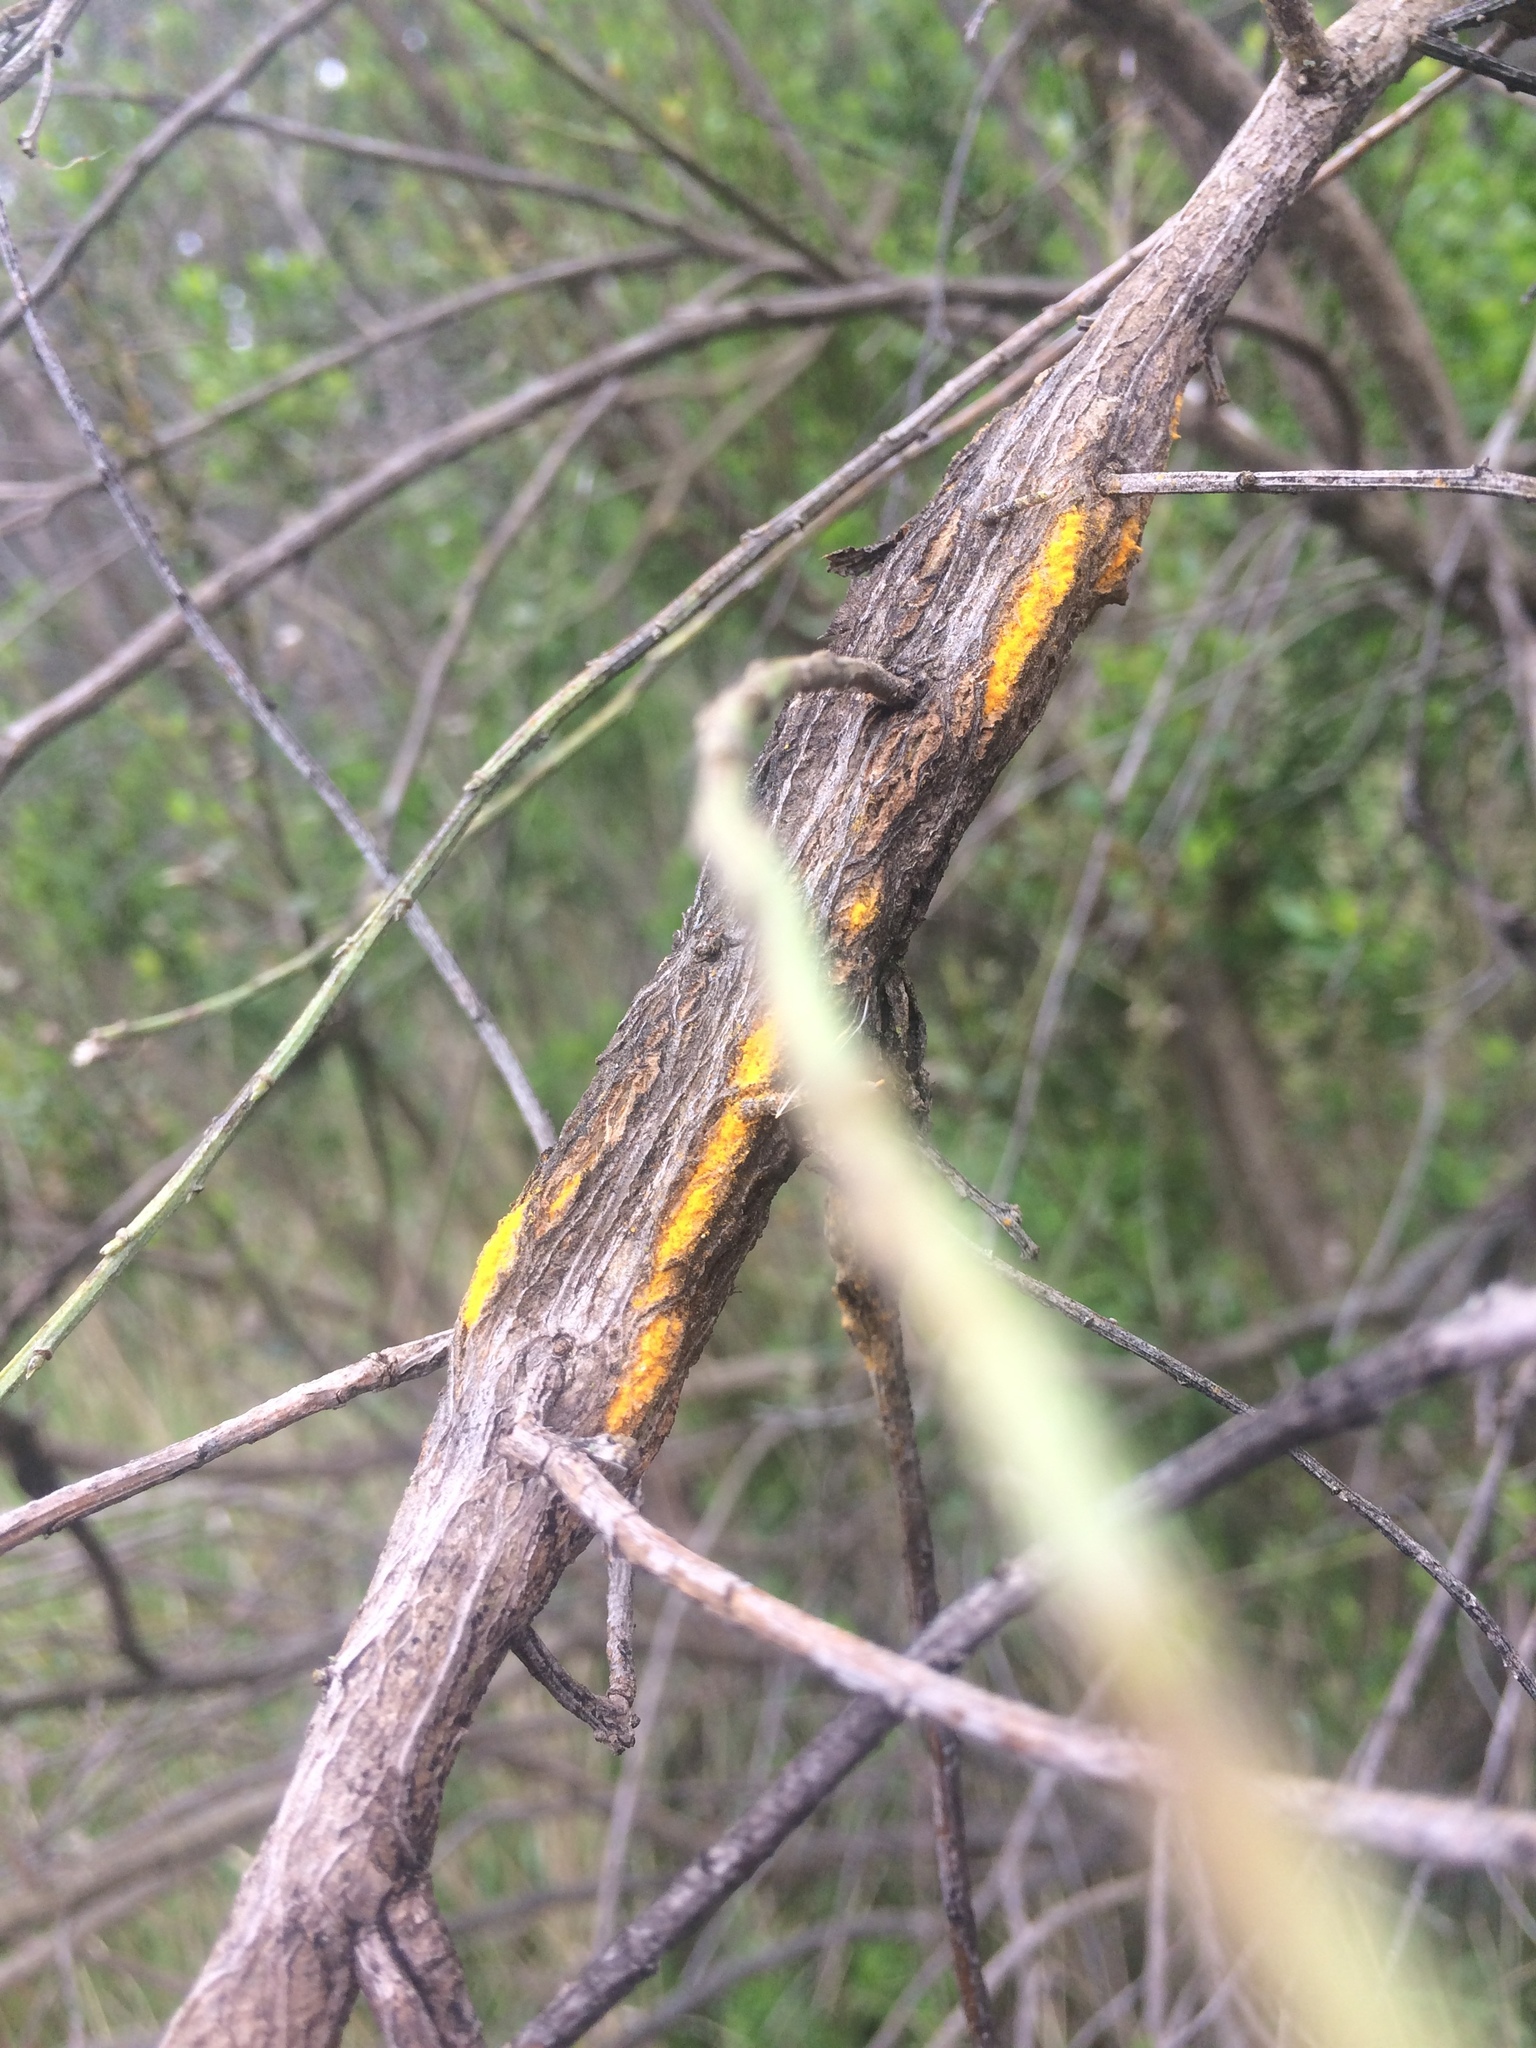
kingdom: Fungi
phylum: Basidiomycota
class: Pucciniomycetes
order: Pucciniales
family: Pucciniaceae
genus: Eriosporangium
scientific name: Eriosporangium evadens
